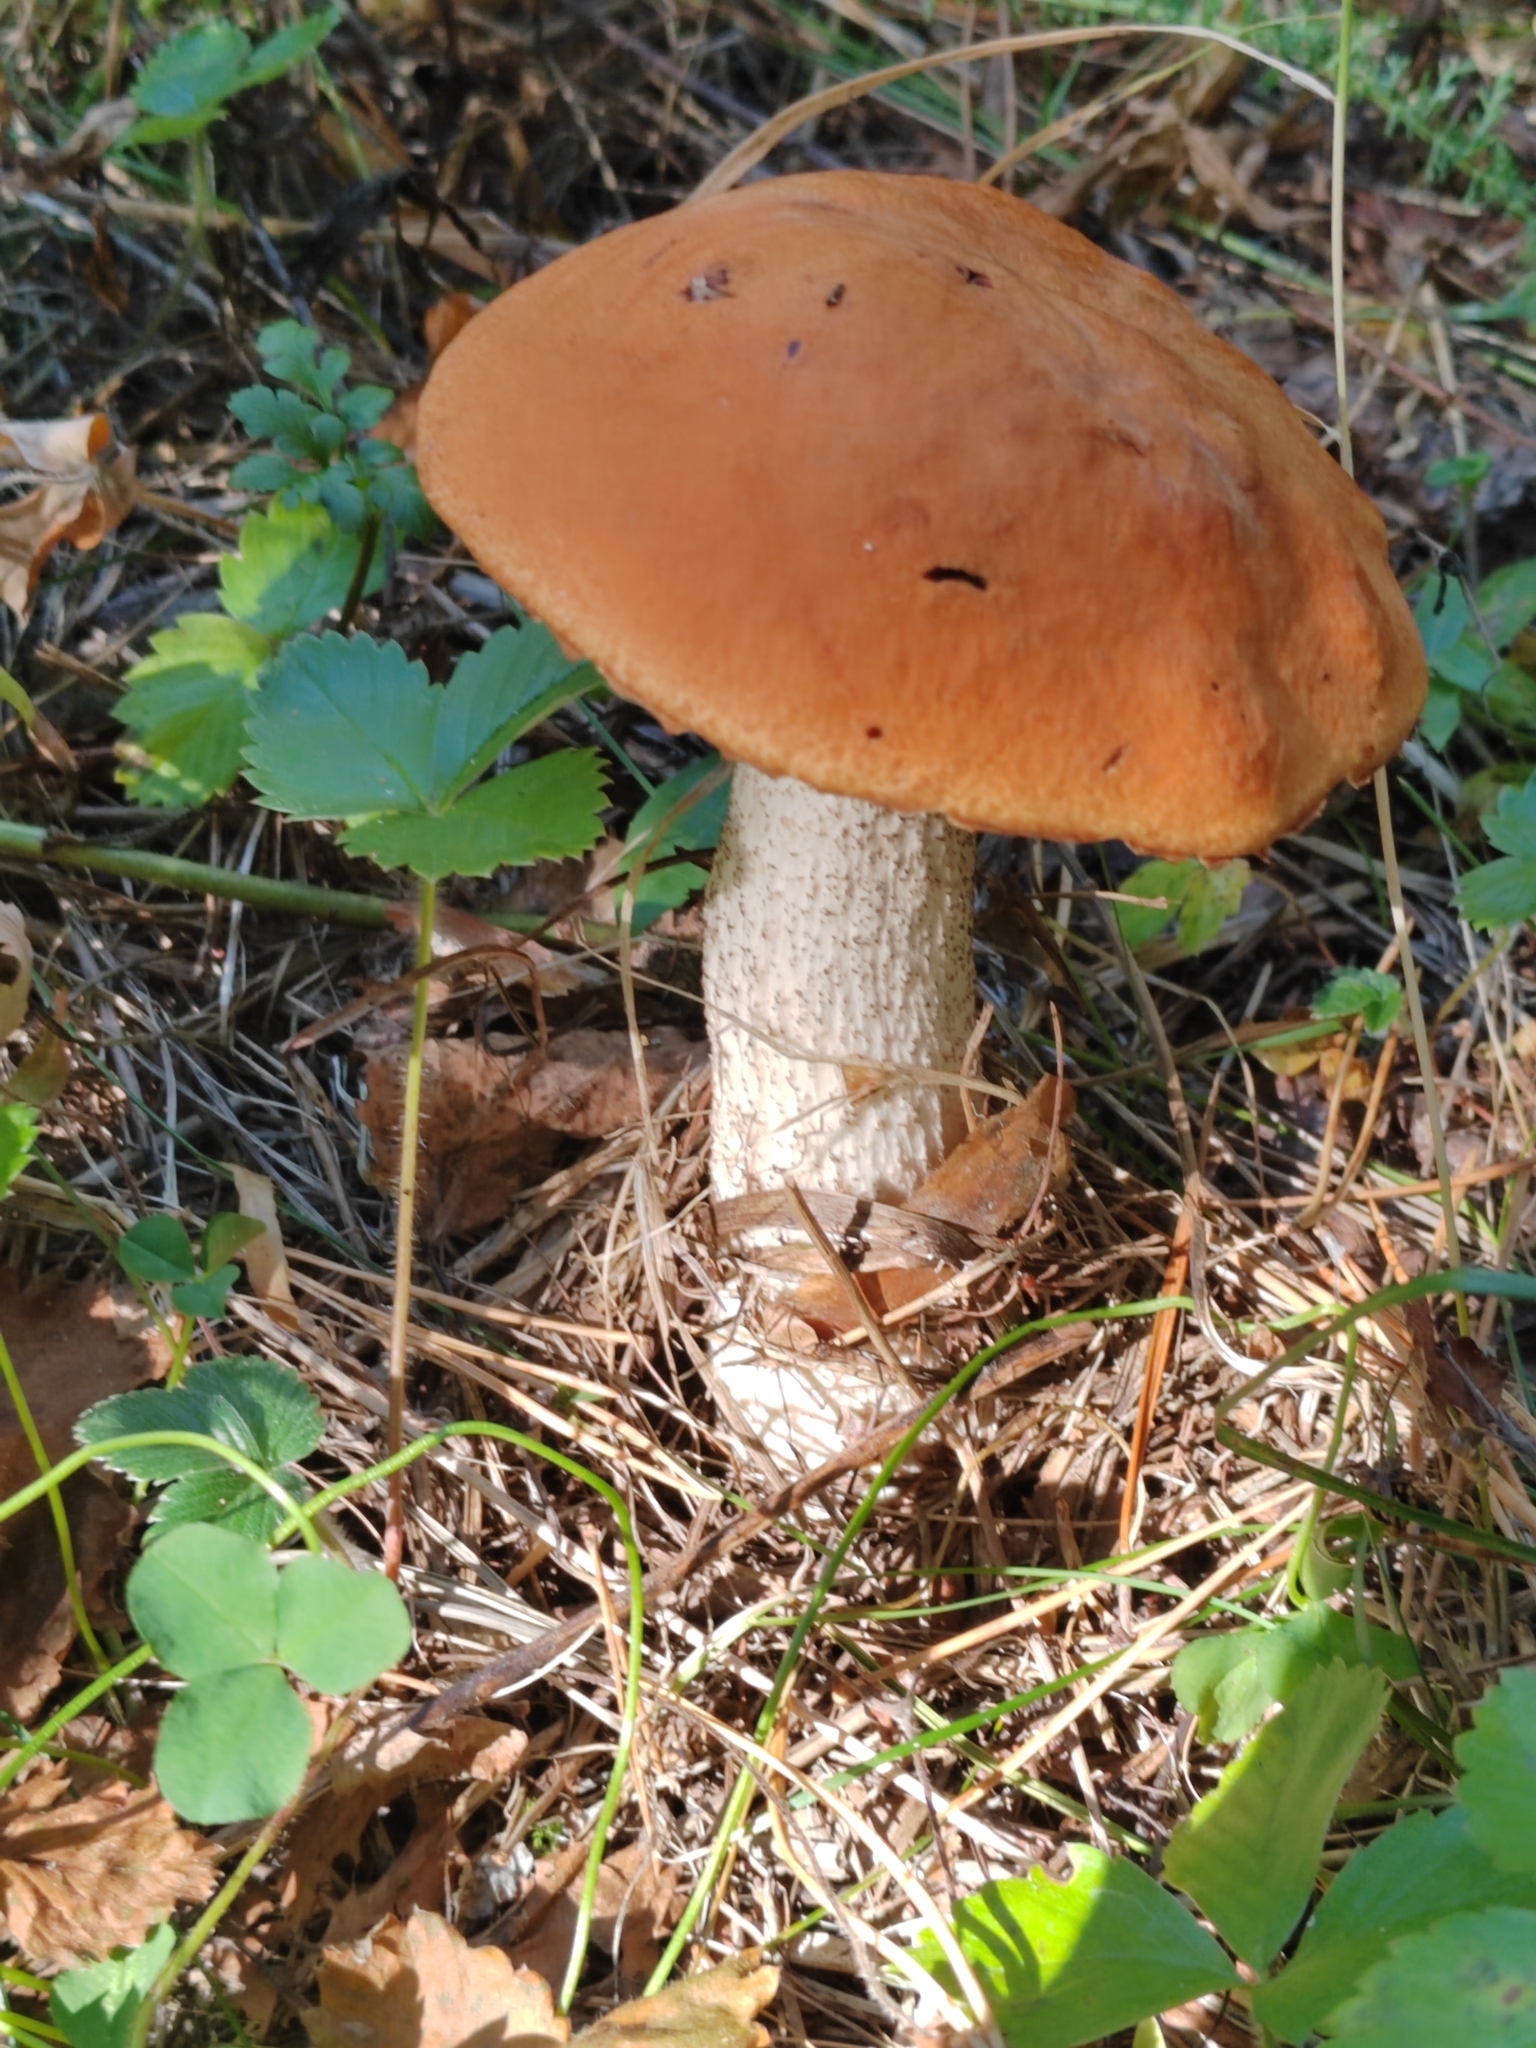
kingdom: Fungi
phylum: Basidiomycota
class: Agaricomycetes
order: Boletales
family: Boletaceae
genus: Leccinum
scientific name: Leccinum aurantiacum
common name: Orange bolete
